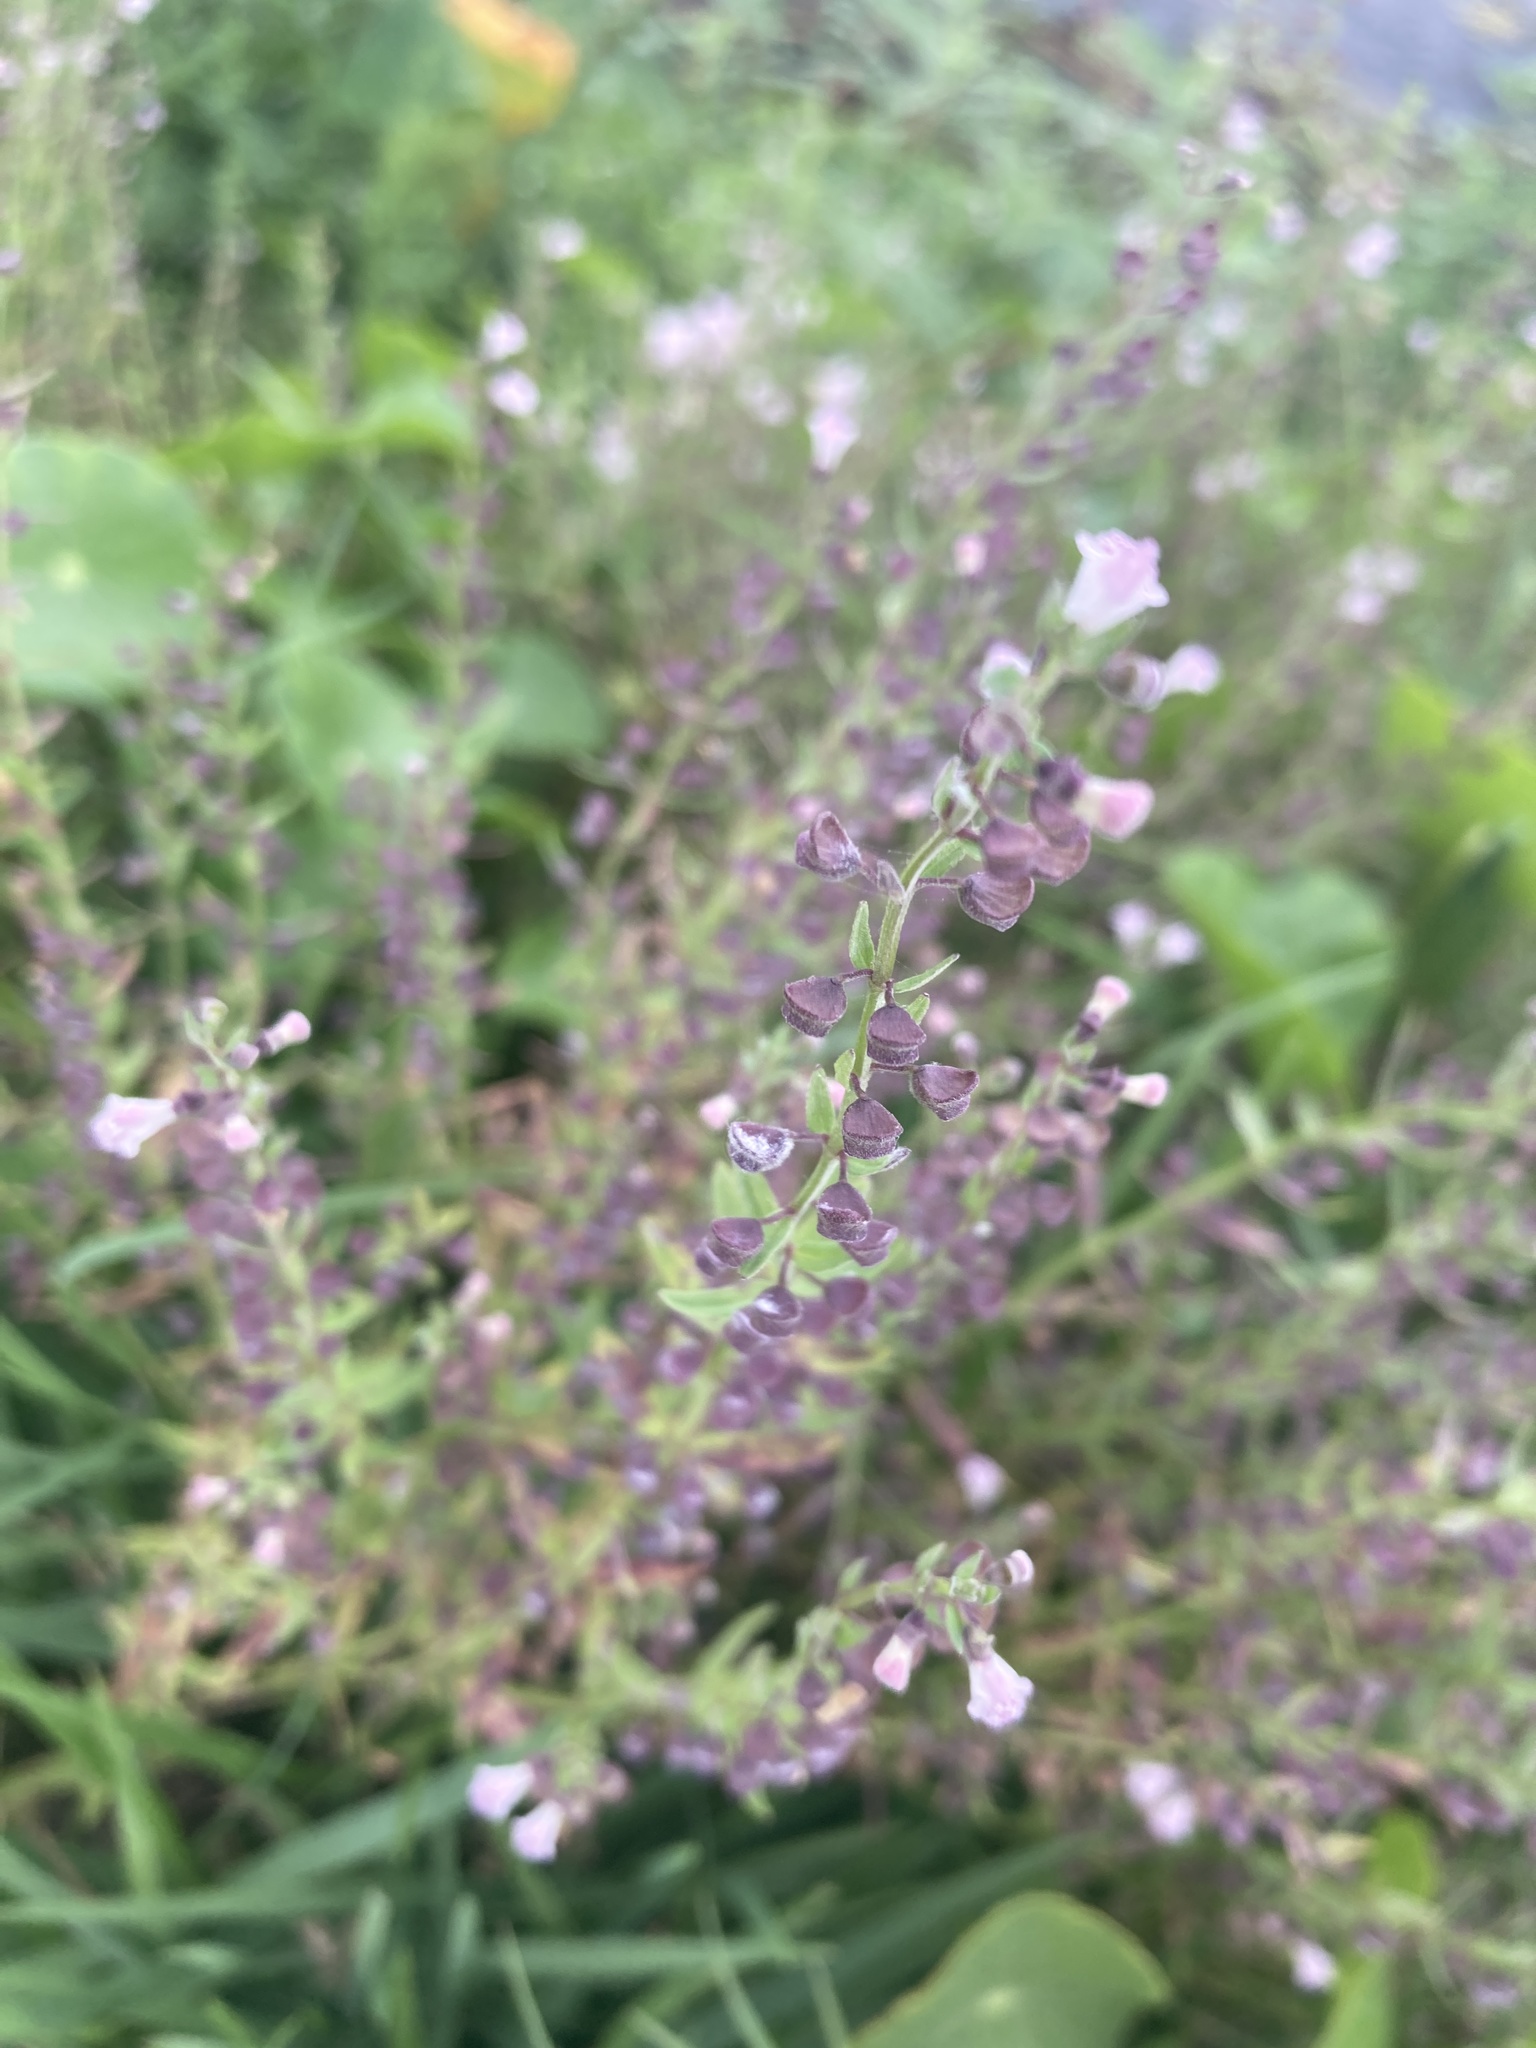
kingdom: Plantae
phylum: Tracheophyta
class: Magnoliopsida
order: Lamiales
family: Lamiaceae
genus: Scutellaria
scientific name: Scutellaria racemosa
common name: South american skullcap
